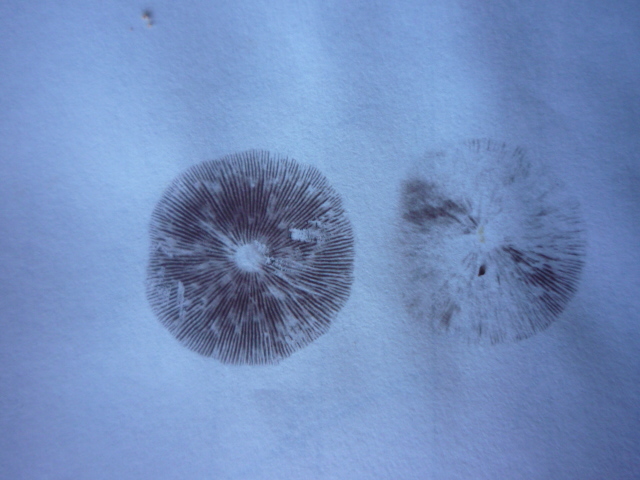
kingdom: Fungi
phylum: Basidiomycota
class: Agaricomycetes
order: Agaricales
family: Strophariaceae
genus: Hypholoma
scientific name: Hypholoma acutum
